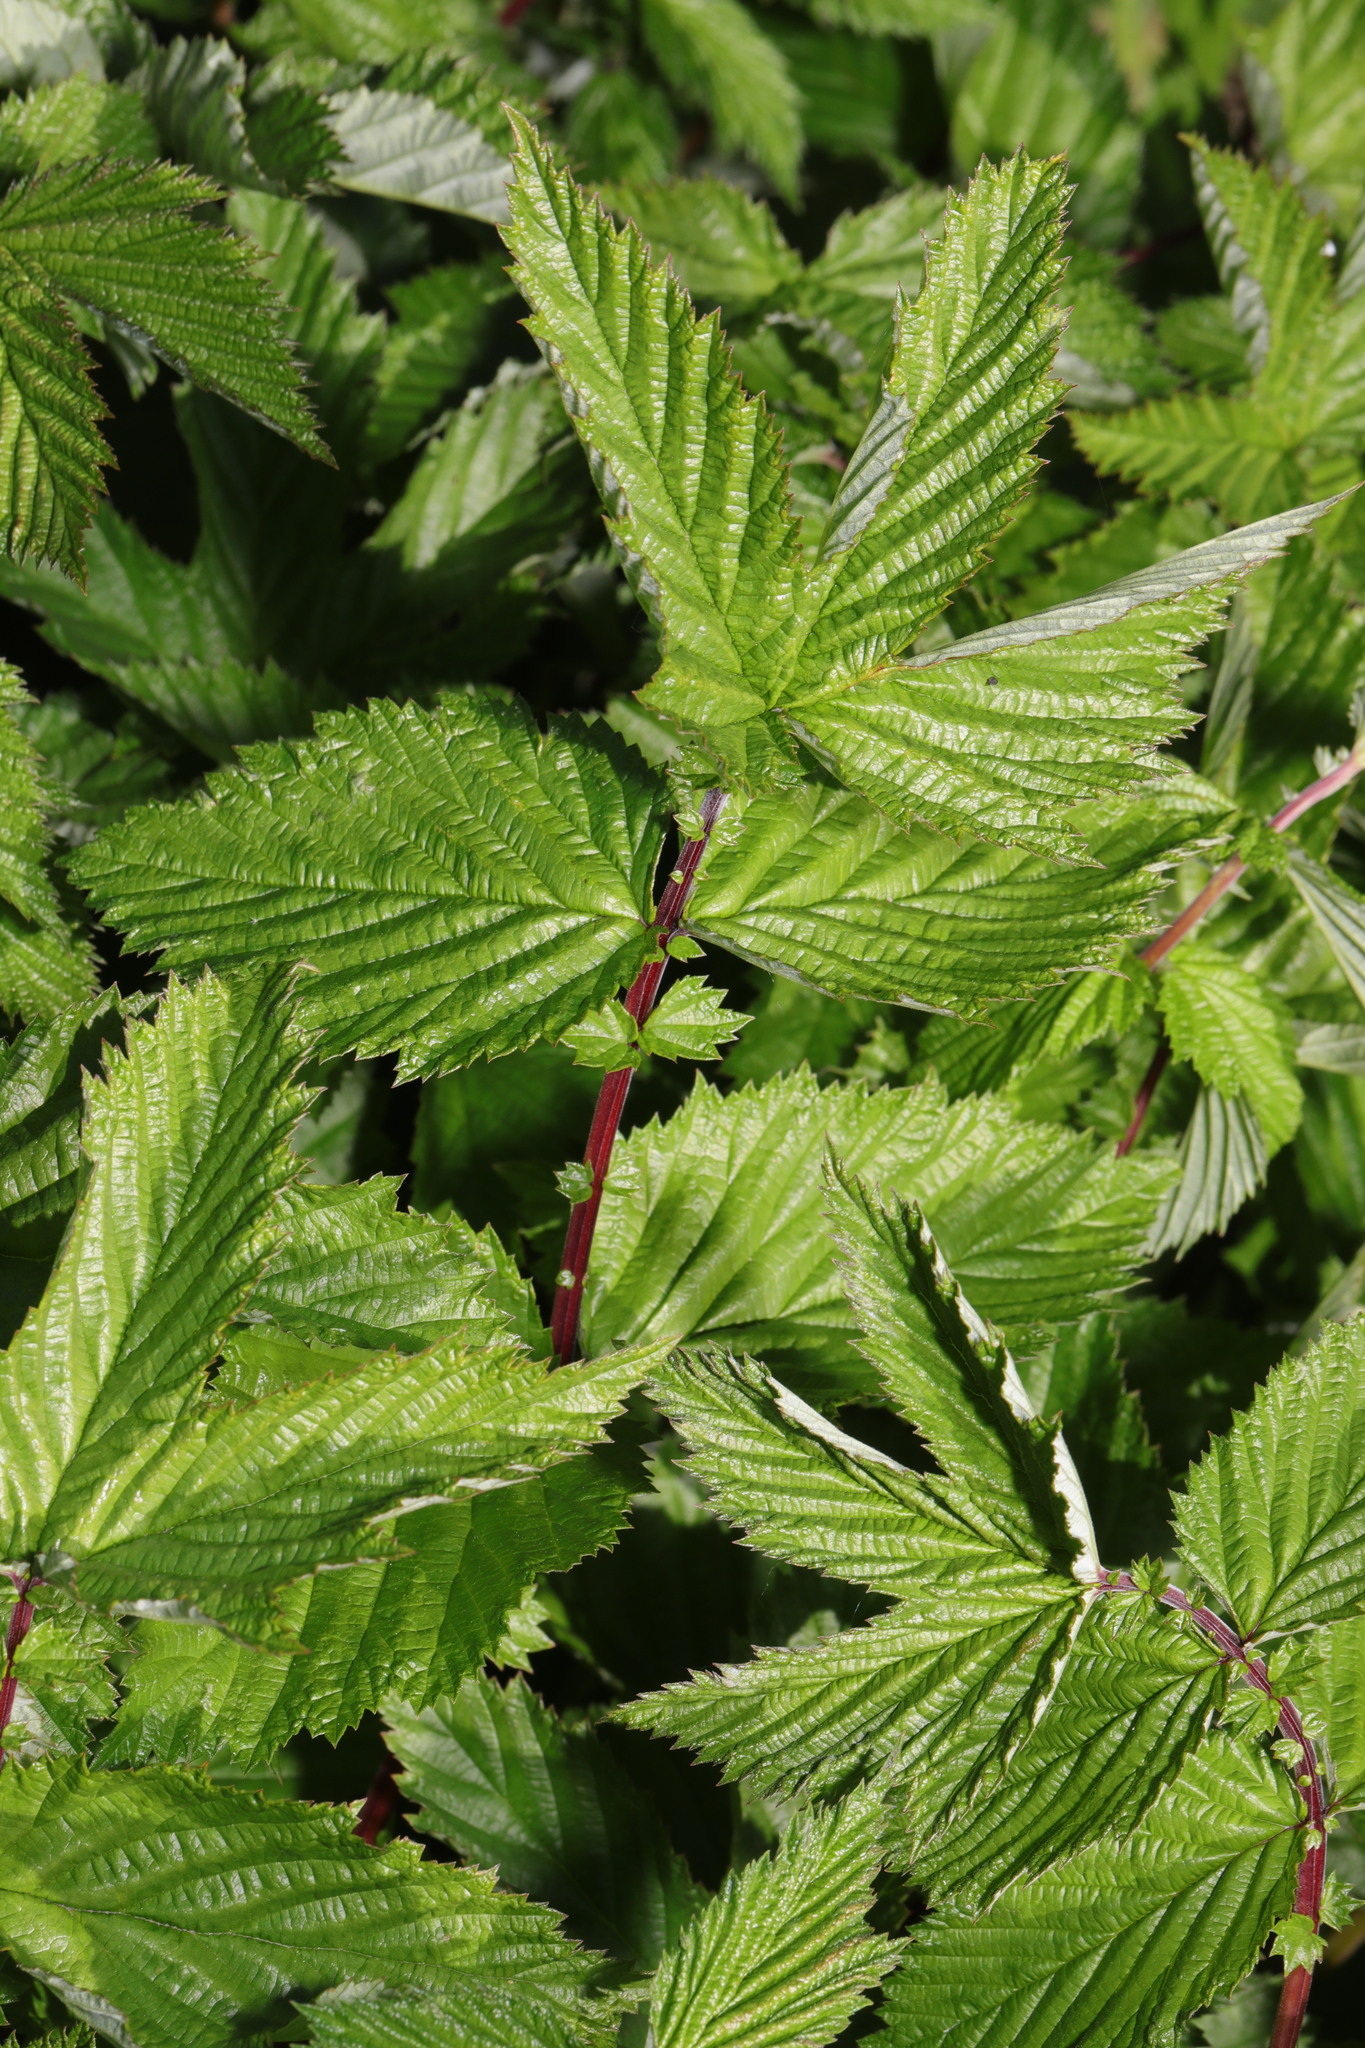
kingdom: Plantae
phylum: Tracheophyta
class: Magnoliopsida
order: Rosales
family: Rosaceae
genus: Filipendula
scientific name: Filipendula ulmaria
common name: Meadowsweet
